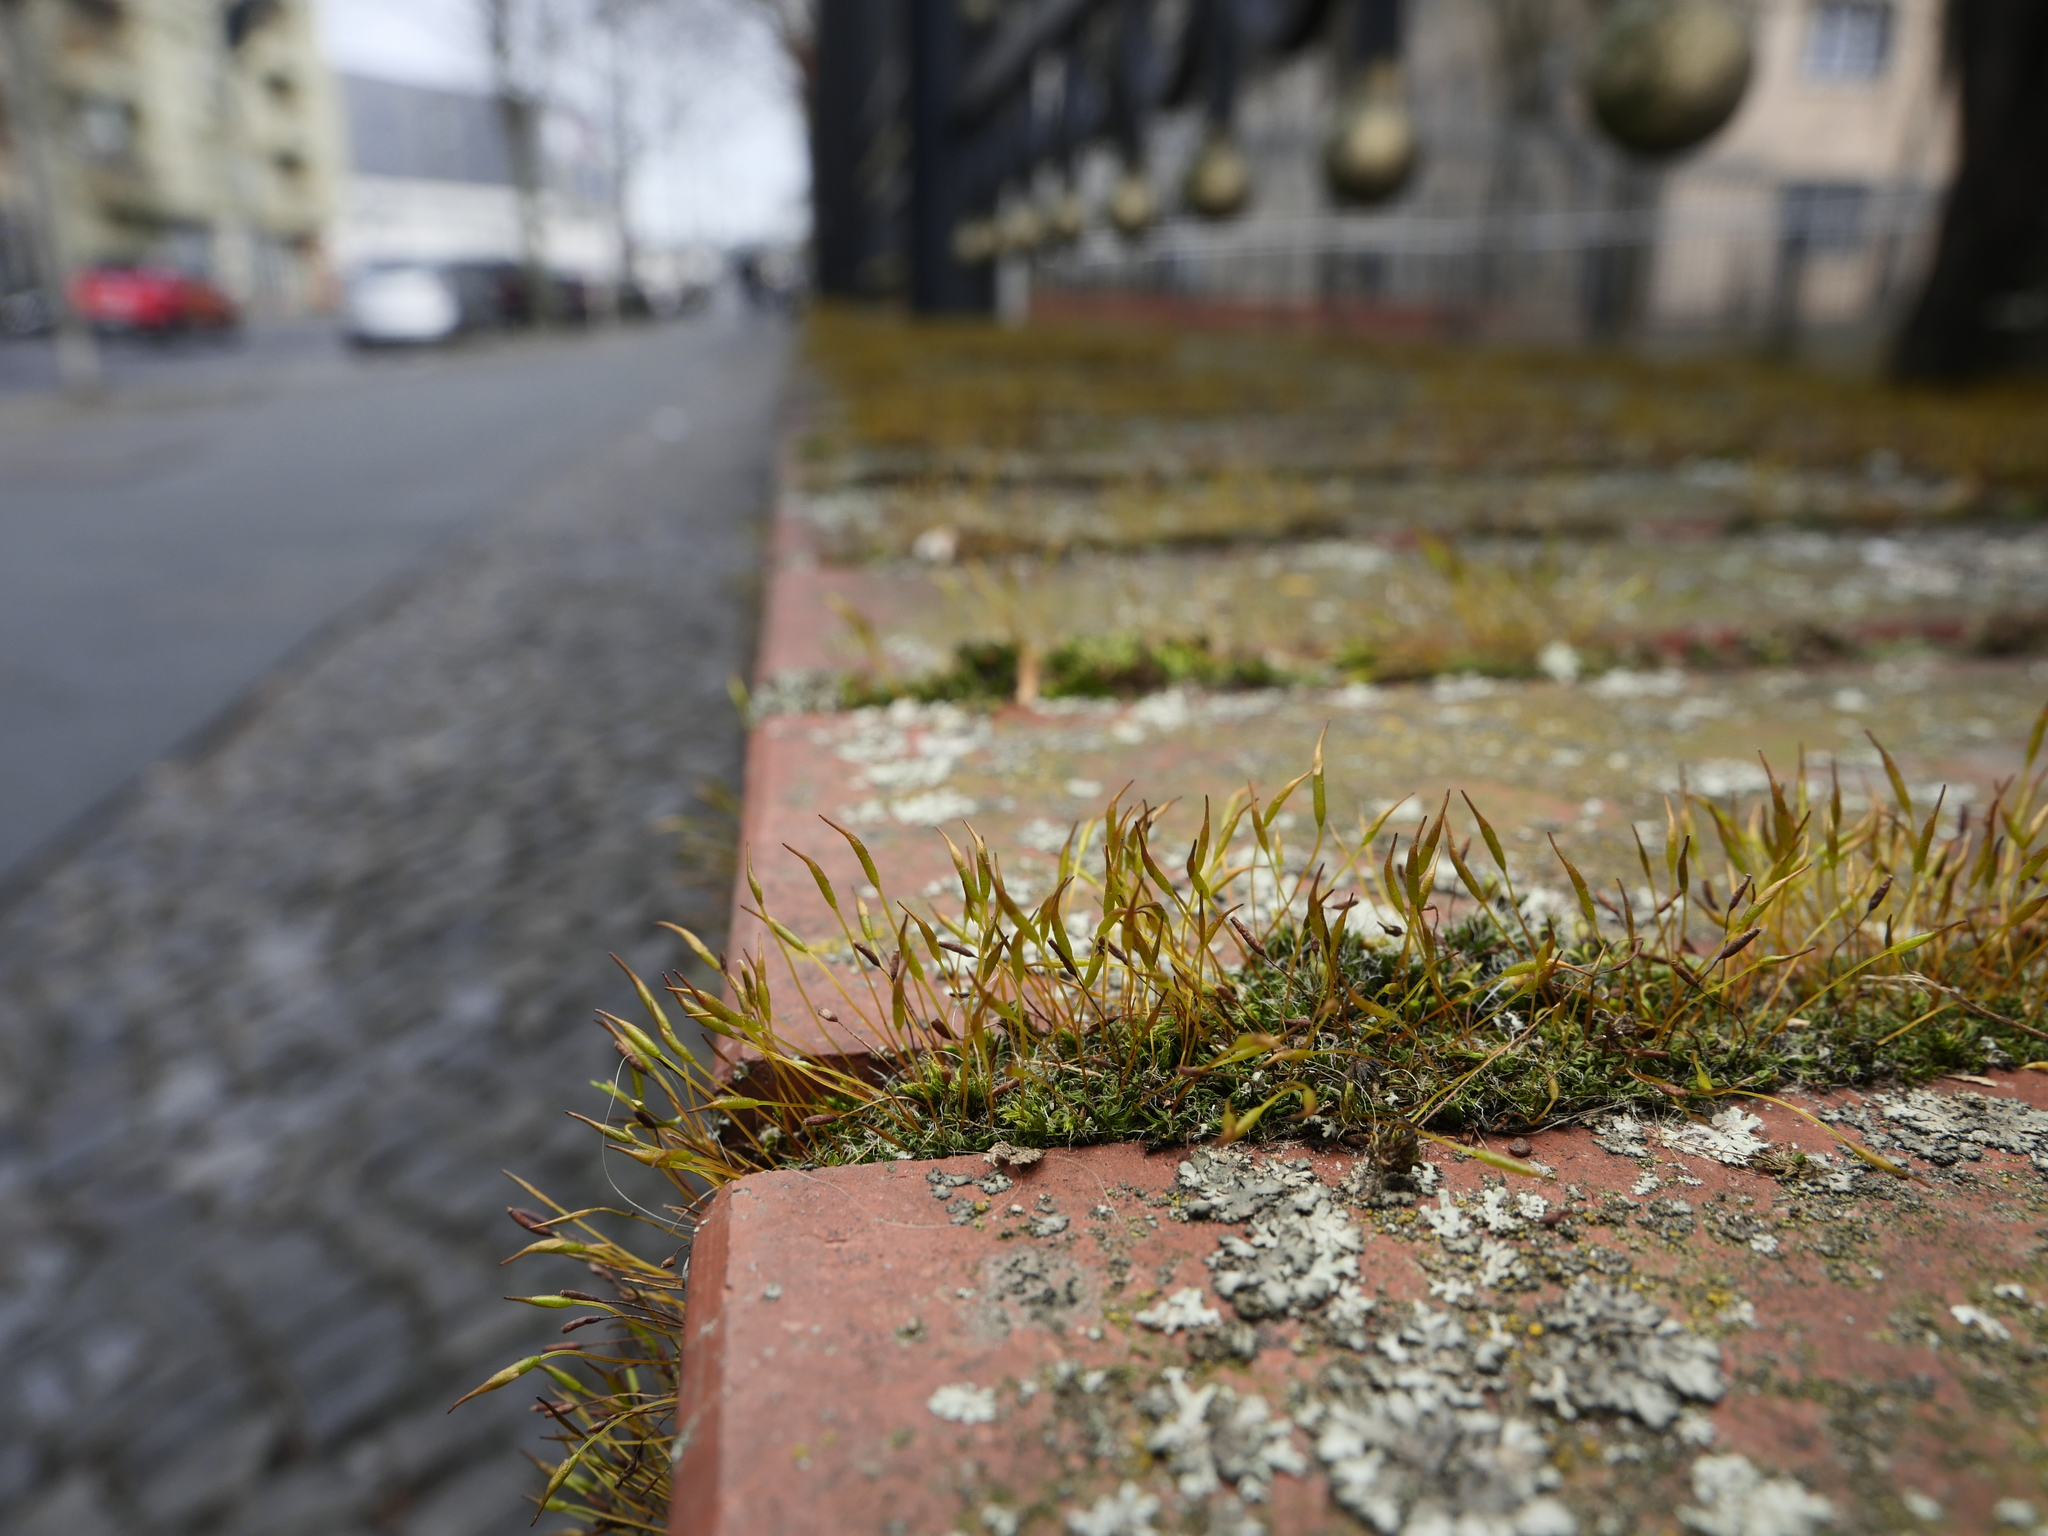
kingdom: Plantae
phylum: Bryophyta
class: Bryopsida
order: Pottiales
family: Pottiaceae
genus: Tortula
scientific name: Tortula muralis
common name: Wall screw-moss
